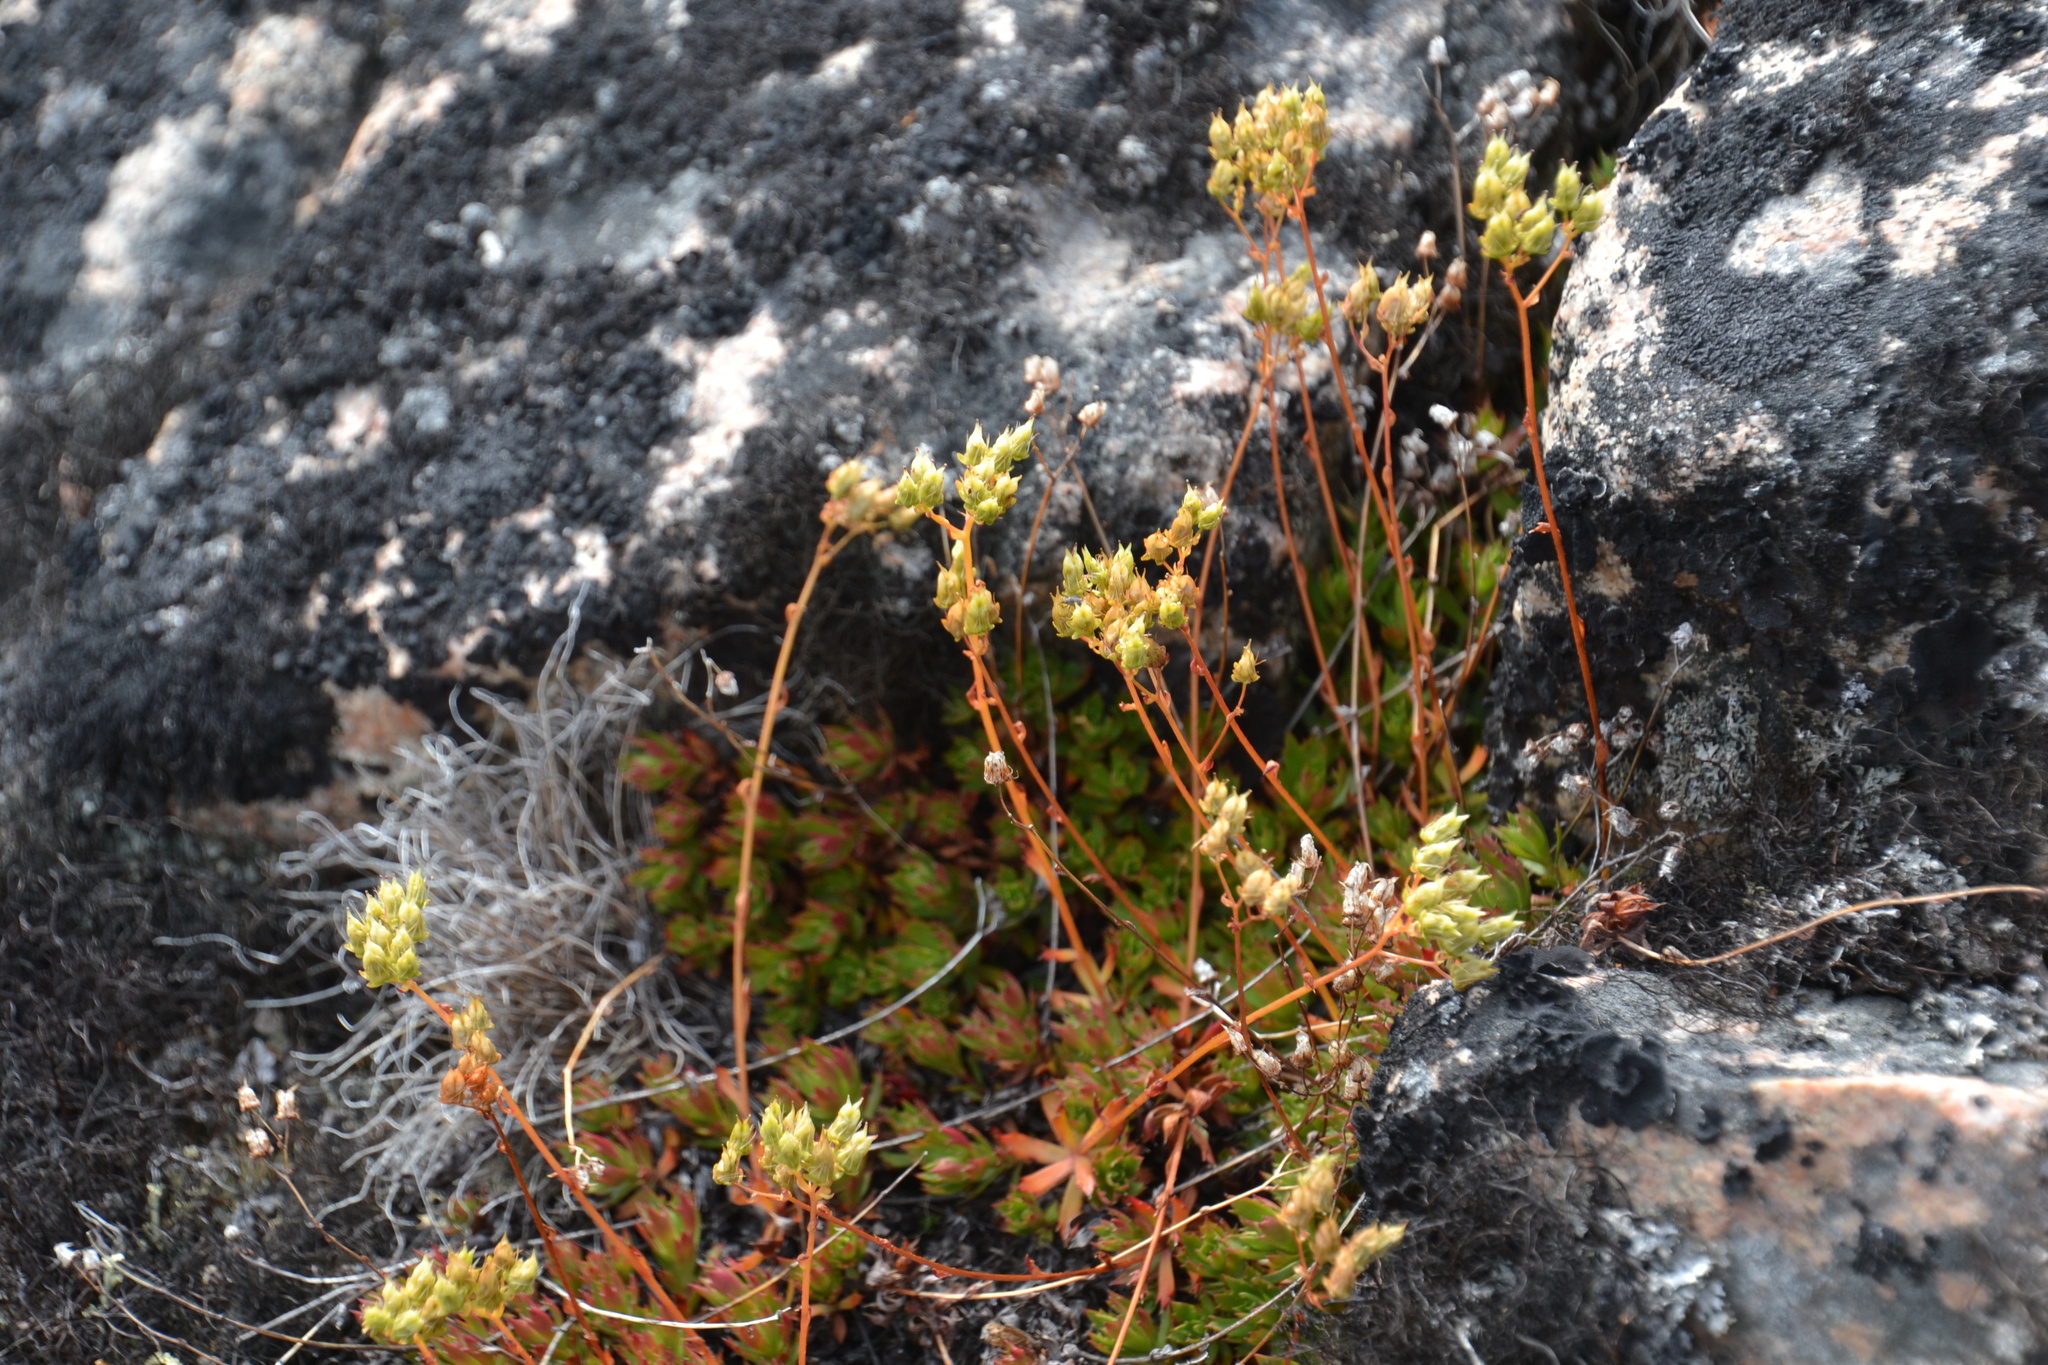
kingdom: Plantae
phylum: Tracheophyta
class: Magnoliopsida
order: Saxifragales
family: Saxifragaceae
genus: Saxifraga
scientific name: Saxifraga tricuspidata
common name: Prickly saxifrage
